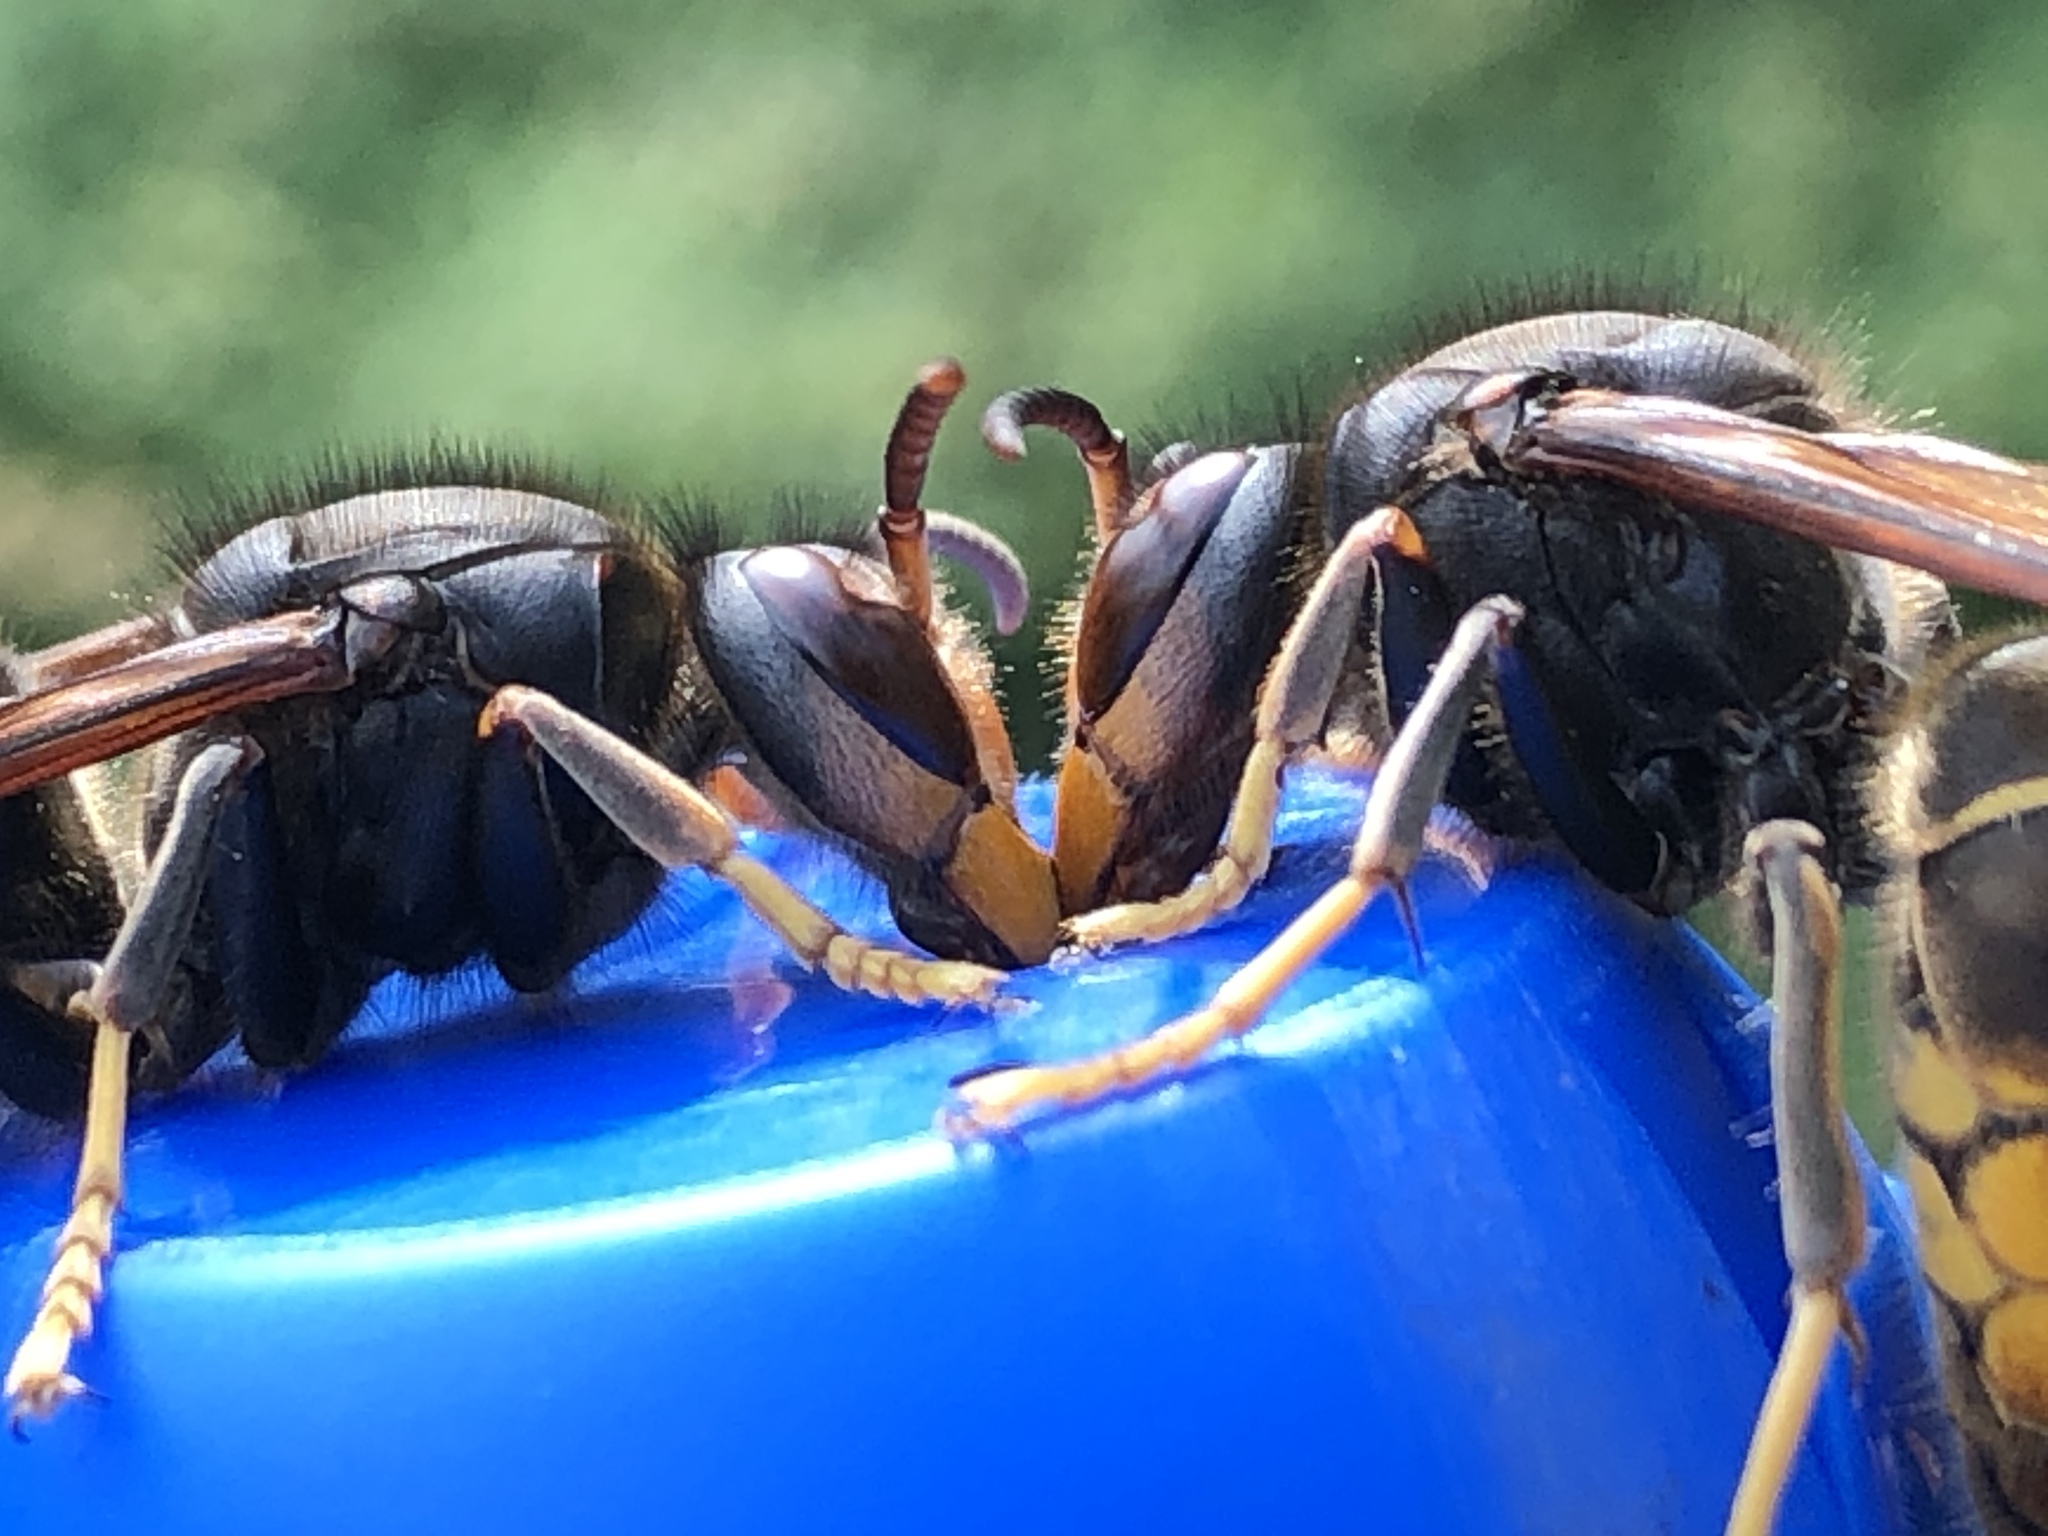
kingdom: Animalia
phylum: Arthropoda
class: Insecta
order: Hymenoptera
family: Vespidae
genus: Vespa
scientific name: Vespa velutina
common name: Asian hornet
